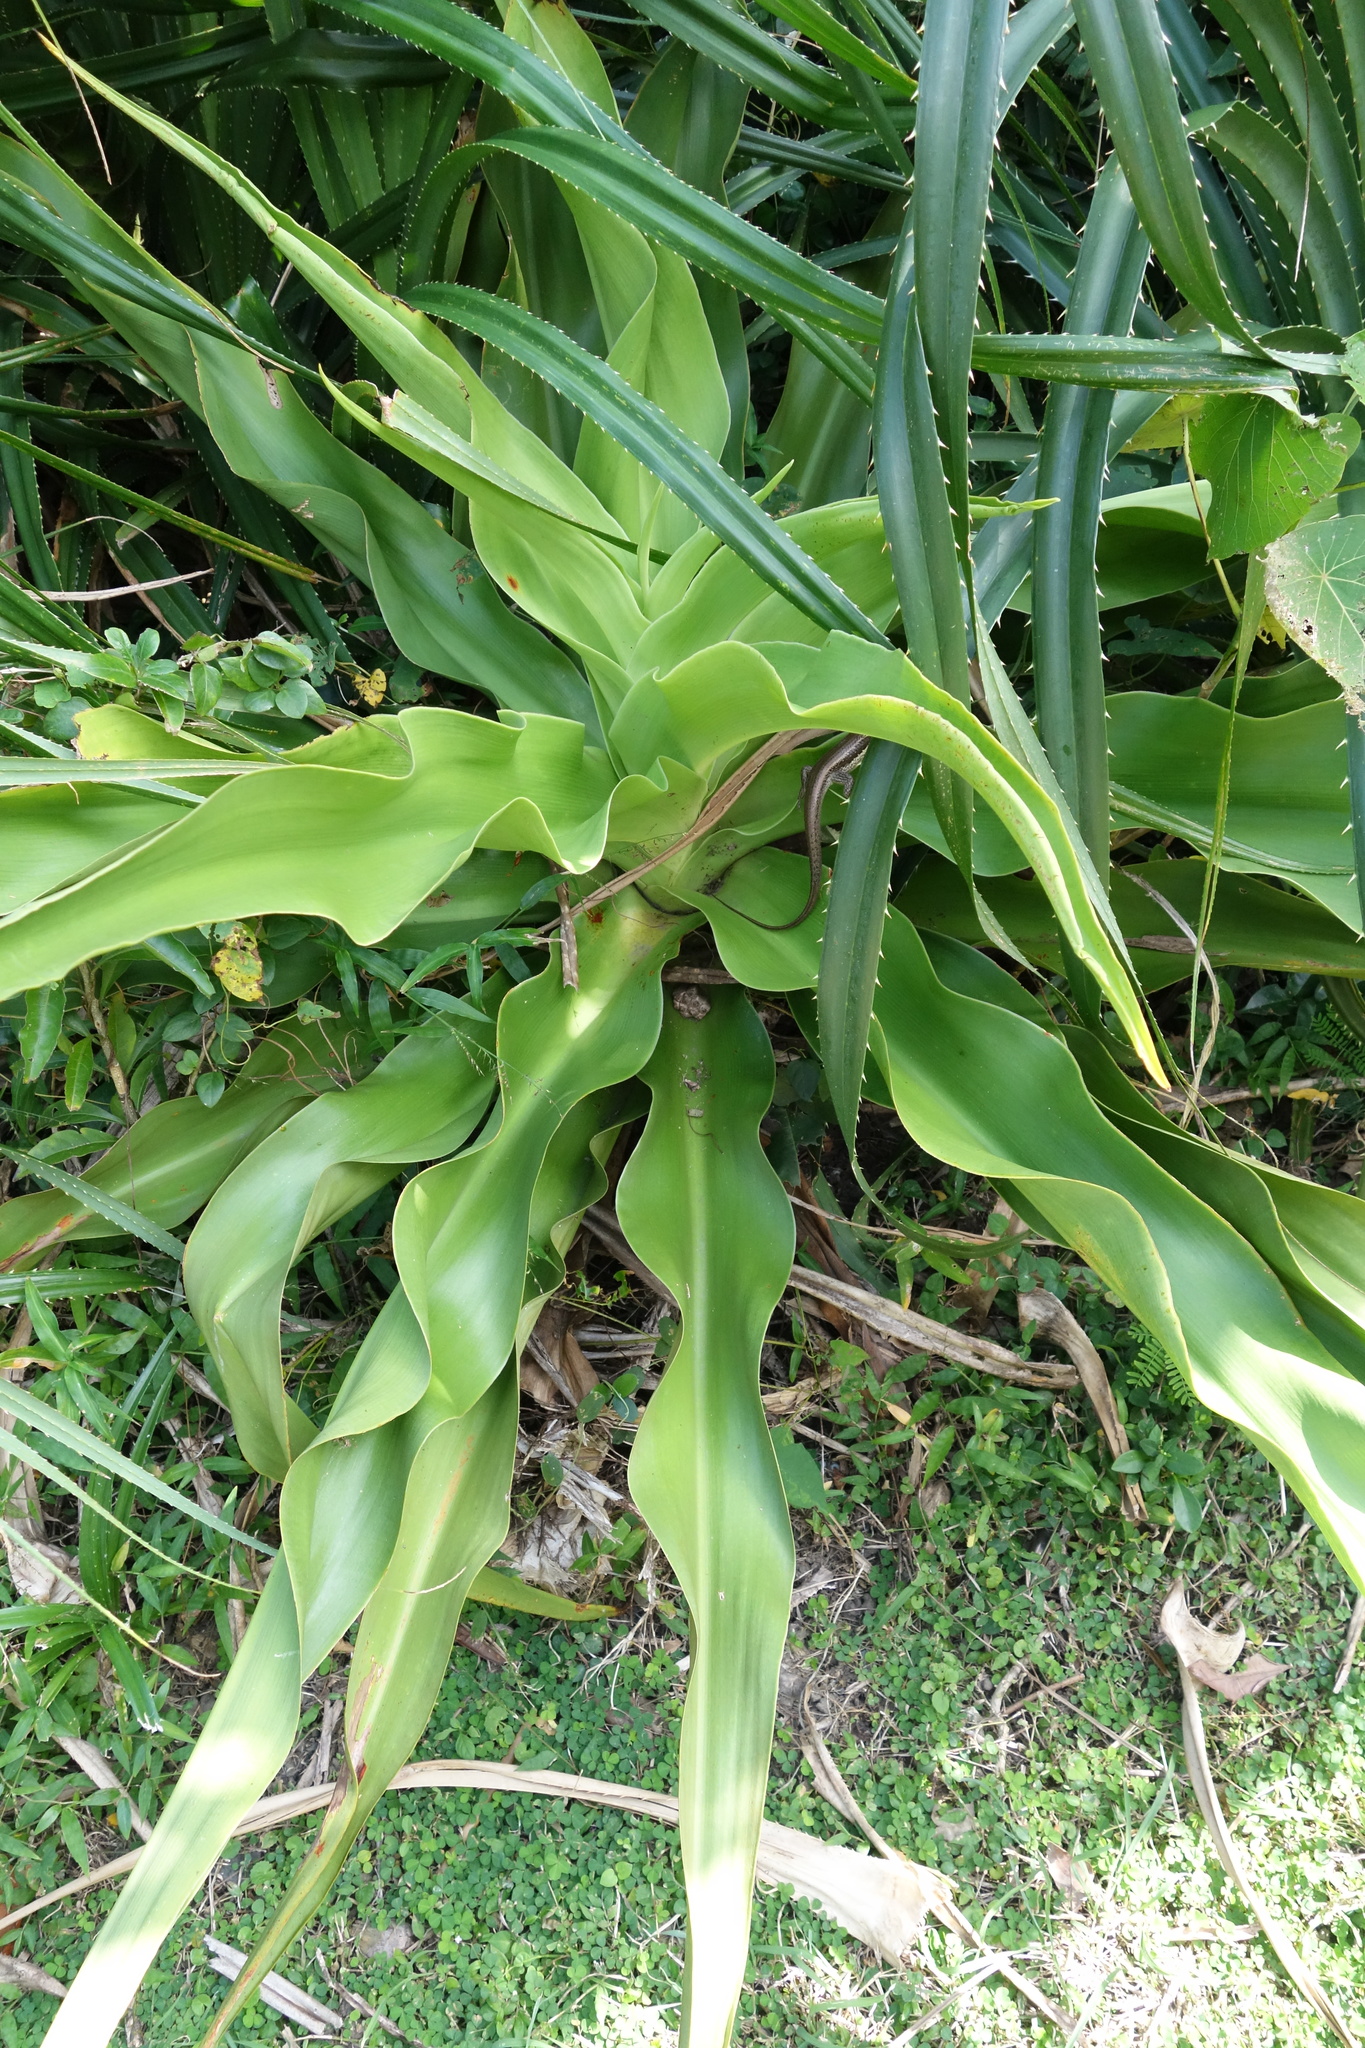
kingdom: Plantae
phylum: Tracheophyta
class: Liliopsida
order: Asparagales
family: Amaryllidaceae
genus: Crinum
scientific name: Crinum asiaticum
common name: Poisonbulb
